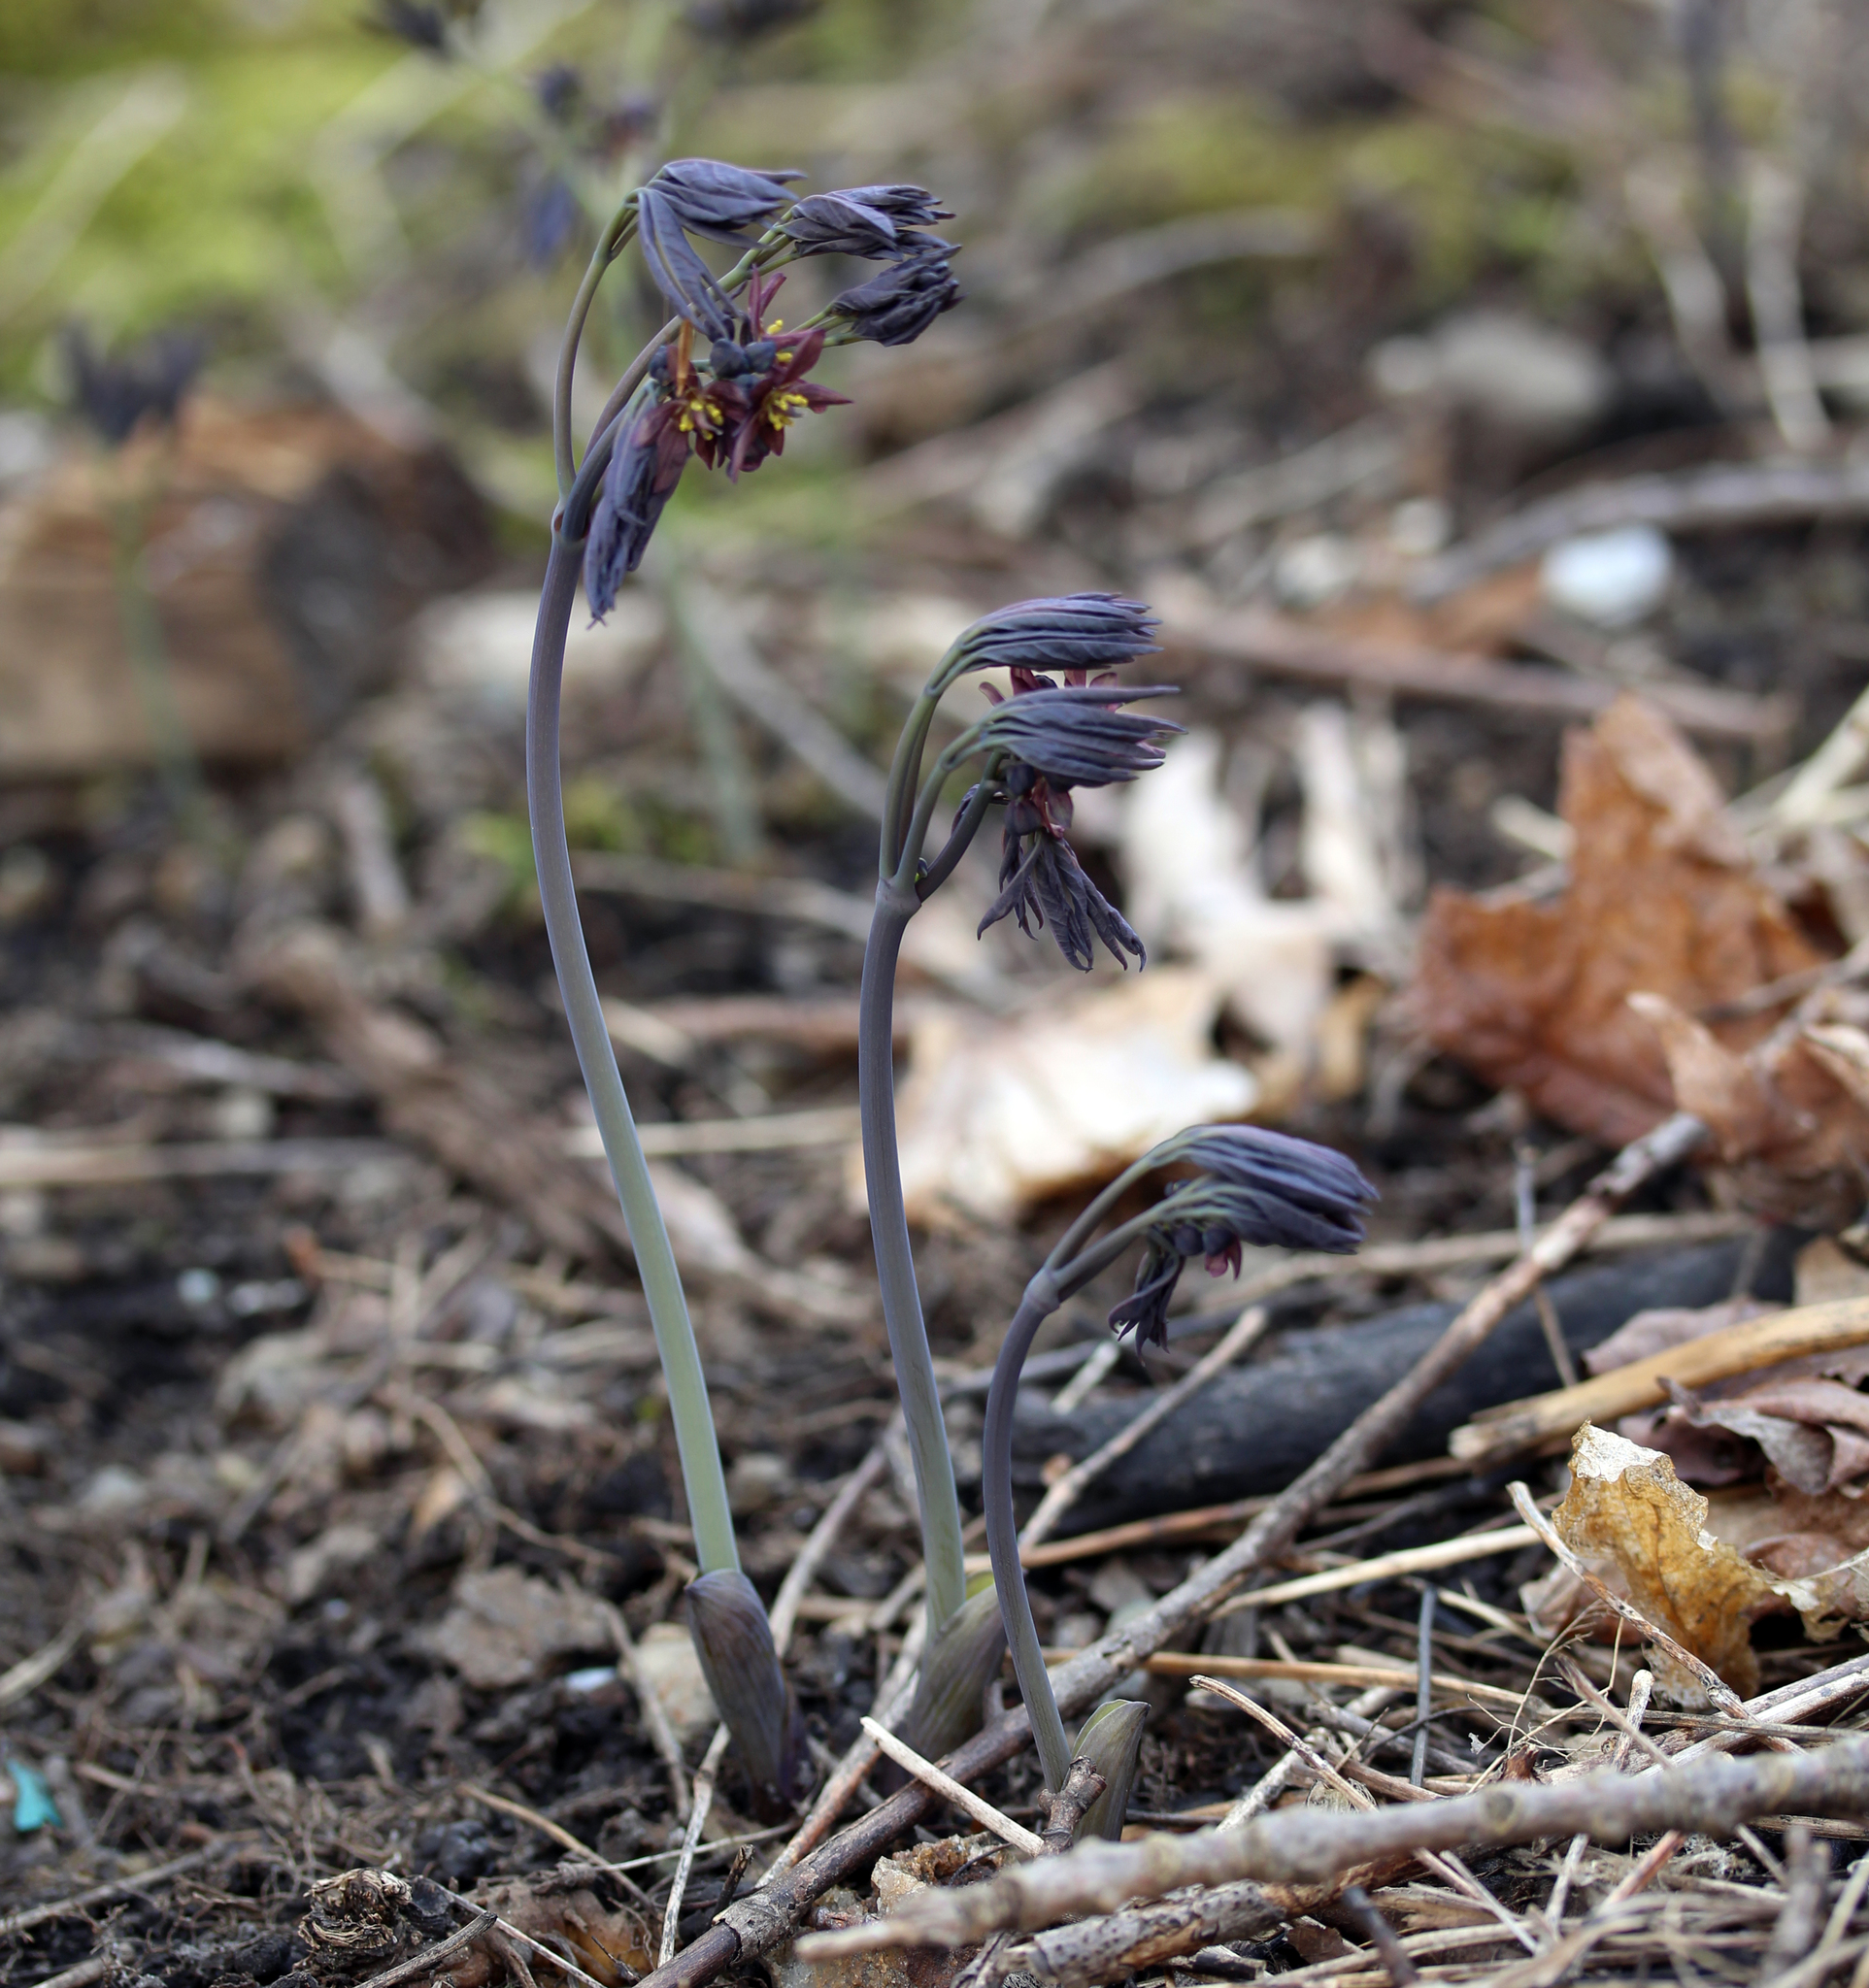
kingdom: Plantae
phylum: Tracheophyta
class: Magnoliopsida
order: Ranunculales
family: Berberidaceae
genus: Caulophyllum
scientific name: Caulophyllum giganteum
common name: Blue cohosh
